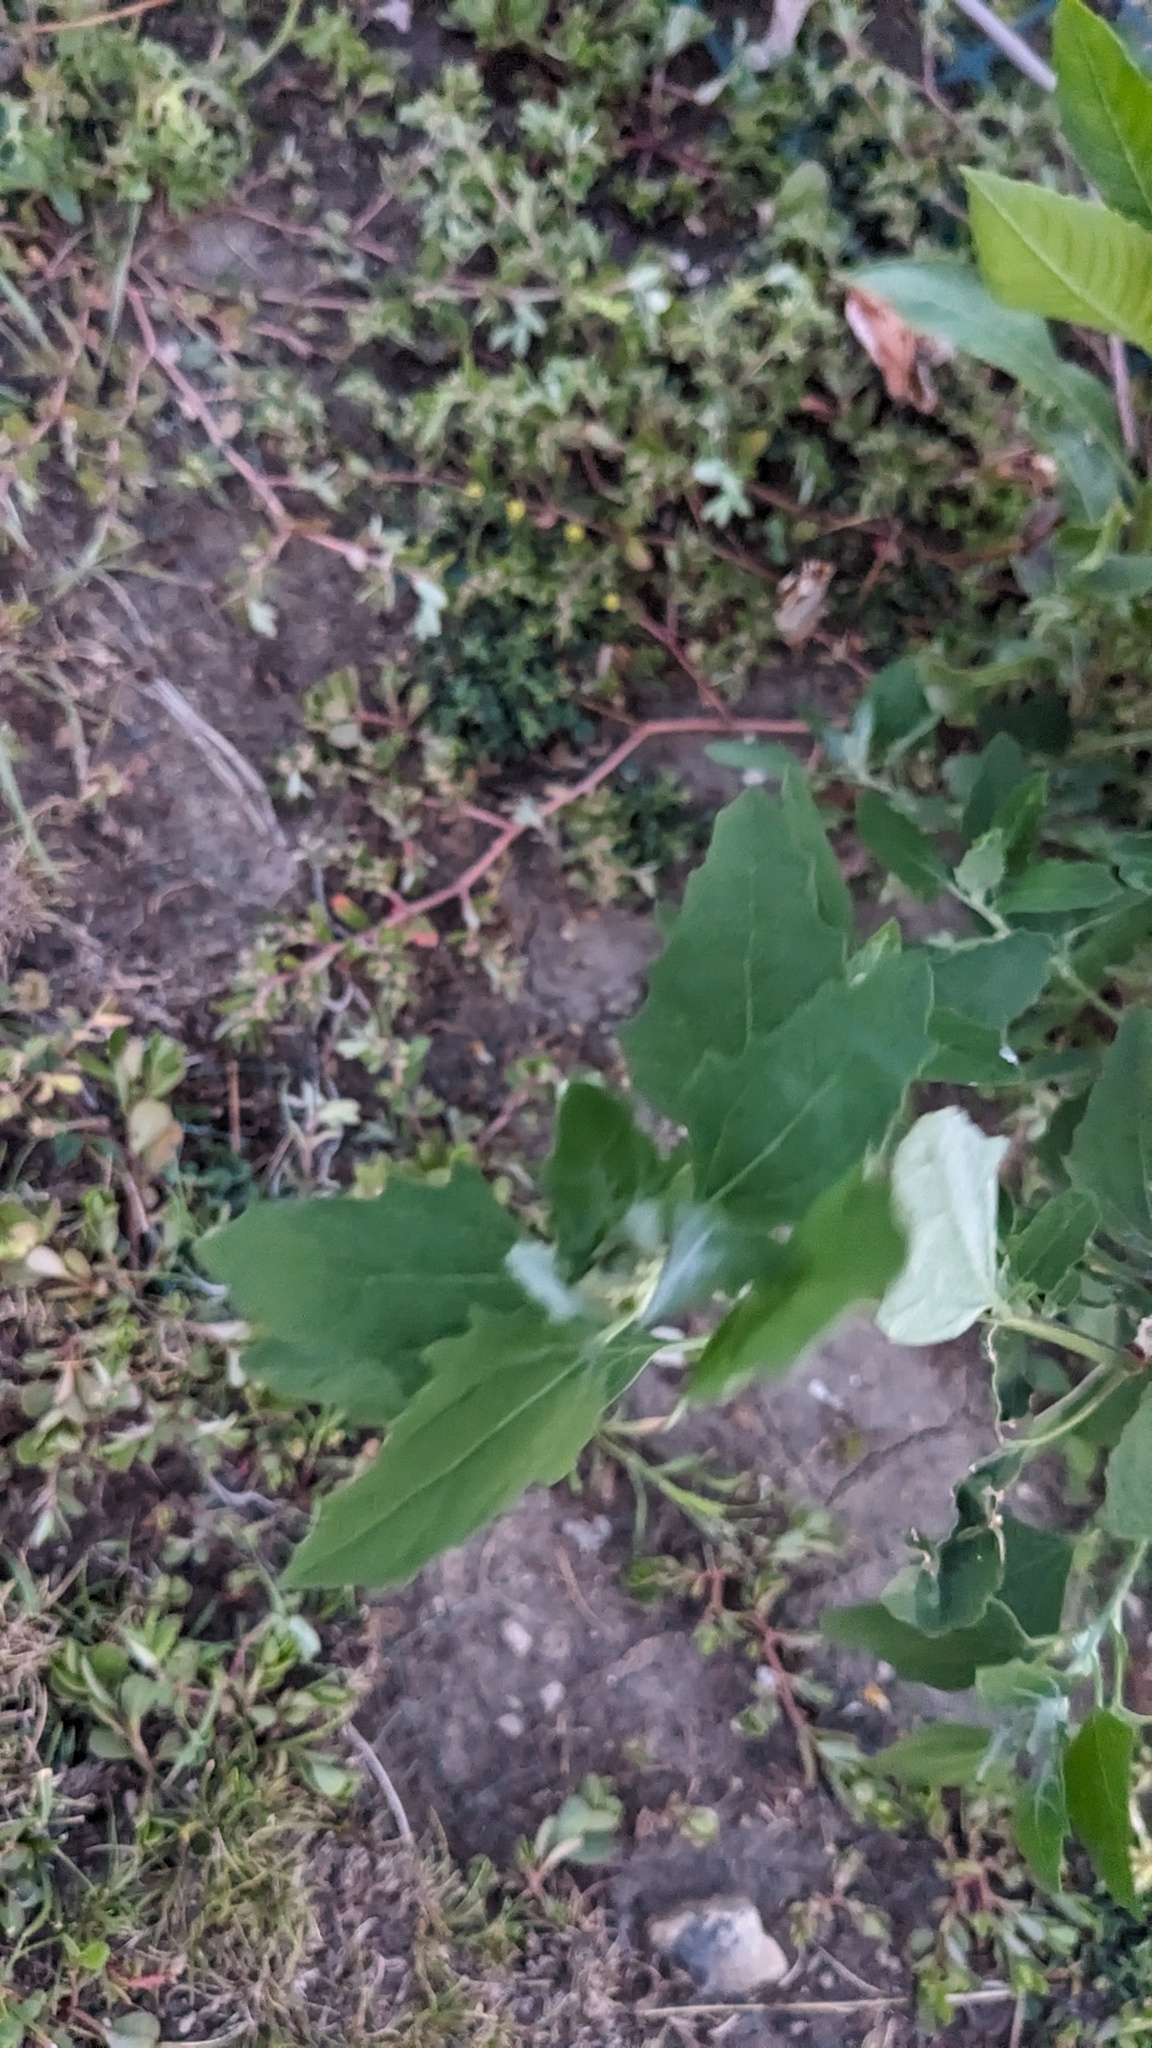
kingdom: Plantae
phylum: Tracheophyta
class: Magnoliopsida
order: Caryophyllales
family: Amaranthaceae
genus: Chenopodium
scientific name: Chenopodium album
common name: Fat-hen
